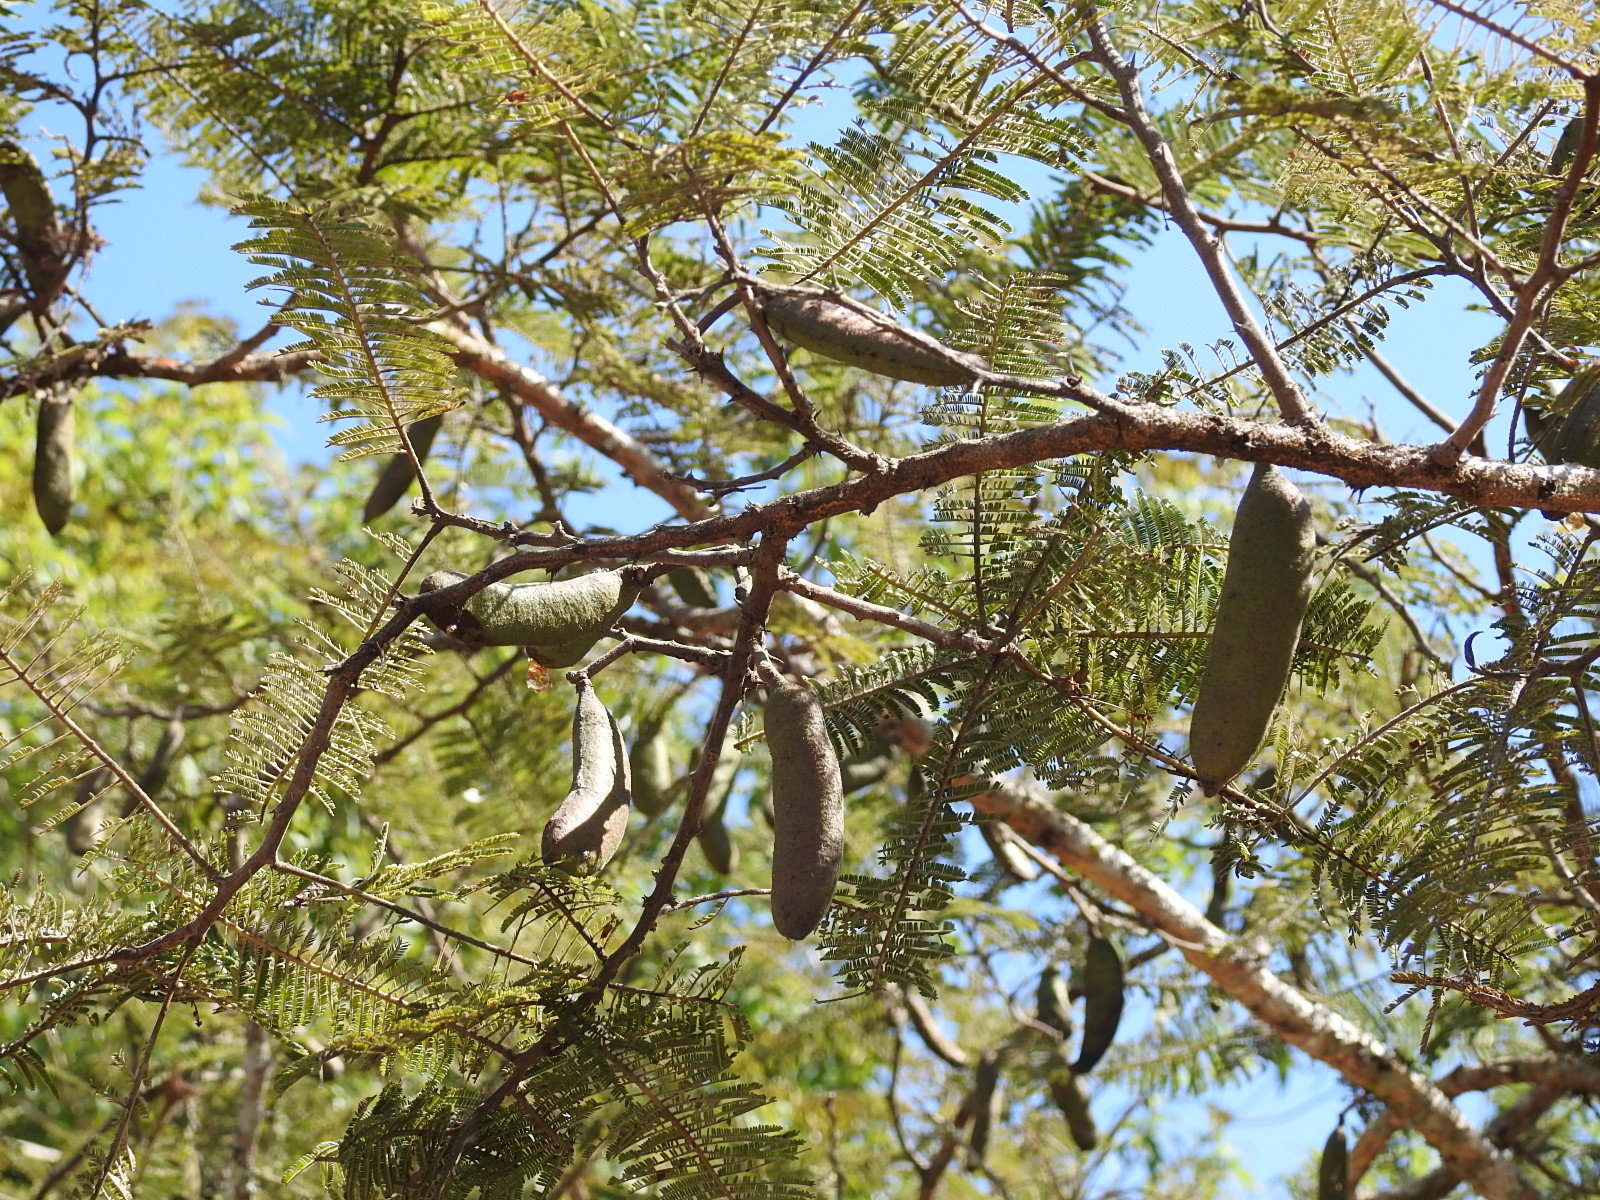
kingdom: Plantae
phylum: Tracheophyta
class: Magnoliopsida
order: Fabales
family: Fabaceae
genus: Vachellia
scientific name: Vachellia pennatula
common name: Fern-leaf acacia
